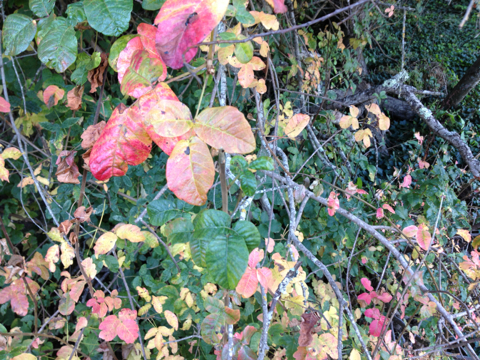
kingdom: Plantae
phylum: Tracheophyta
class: Magnoliopsida
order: Sapindales
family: Anacardiaceae
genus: Toxicodendron
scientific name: Toxicodendron diversilobum
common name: Pacific poison-oak
